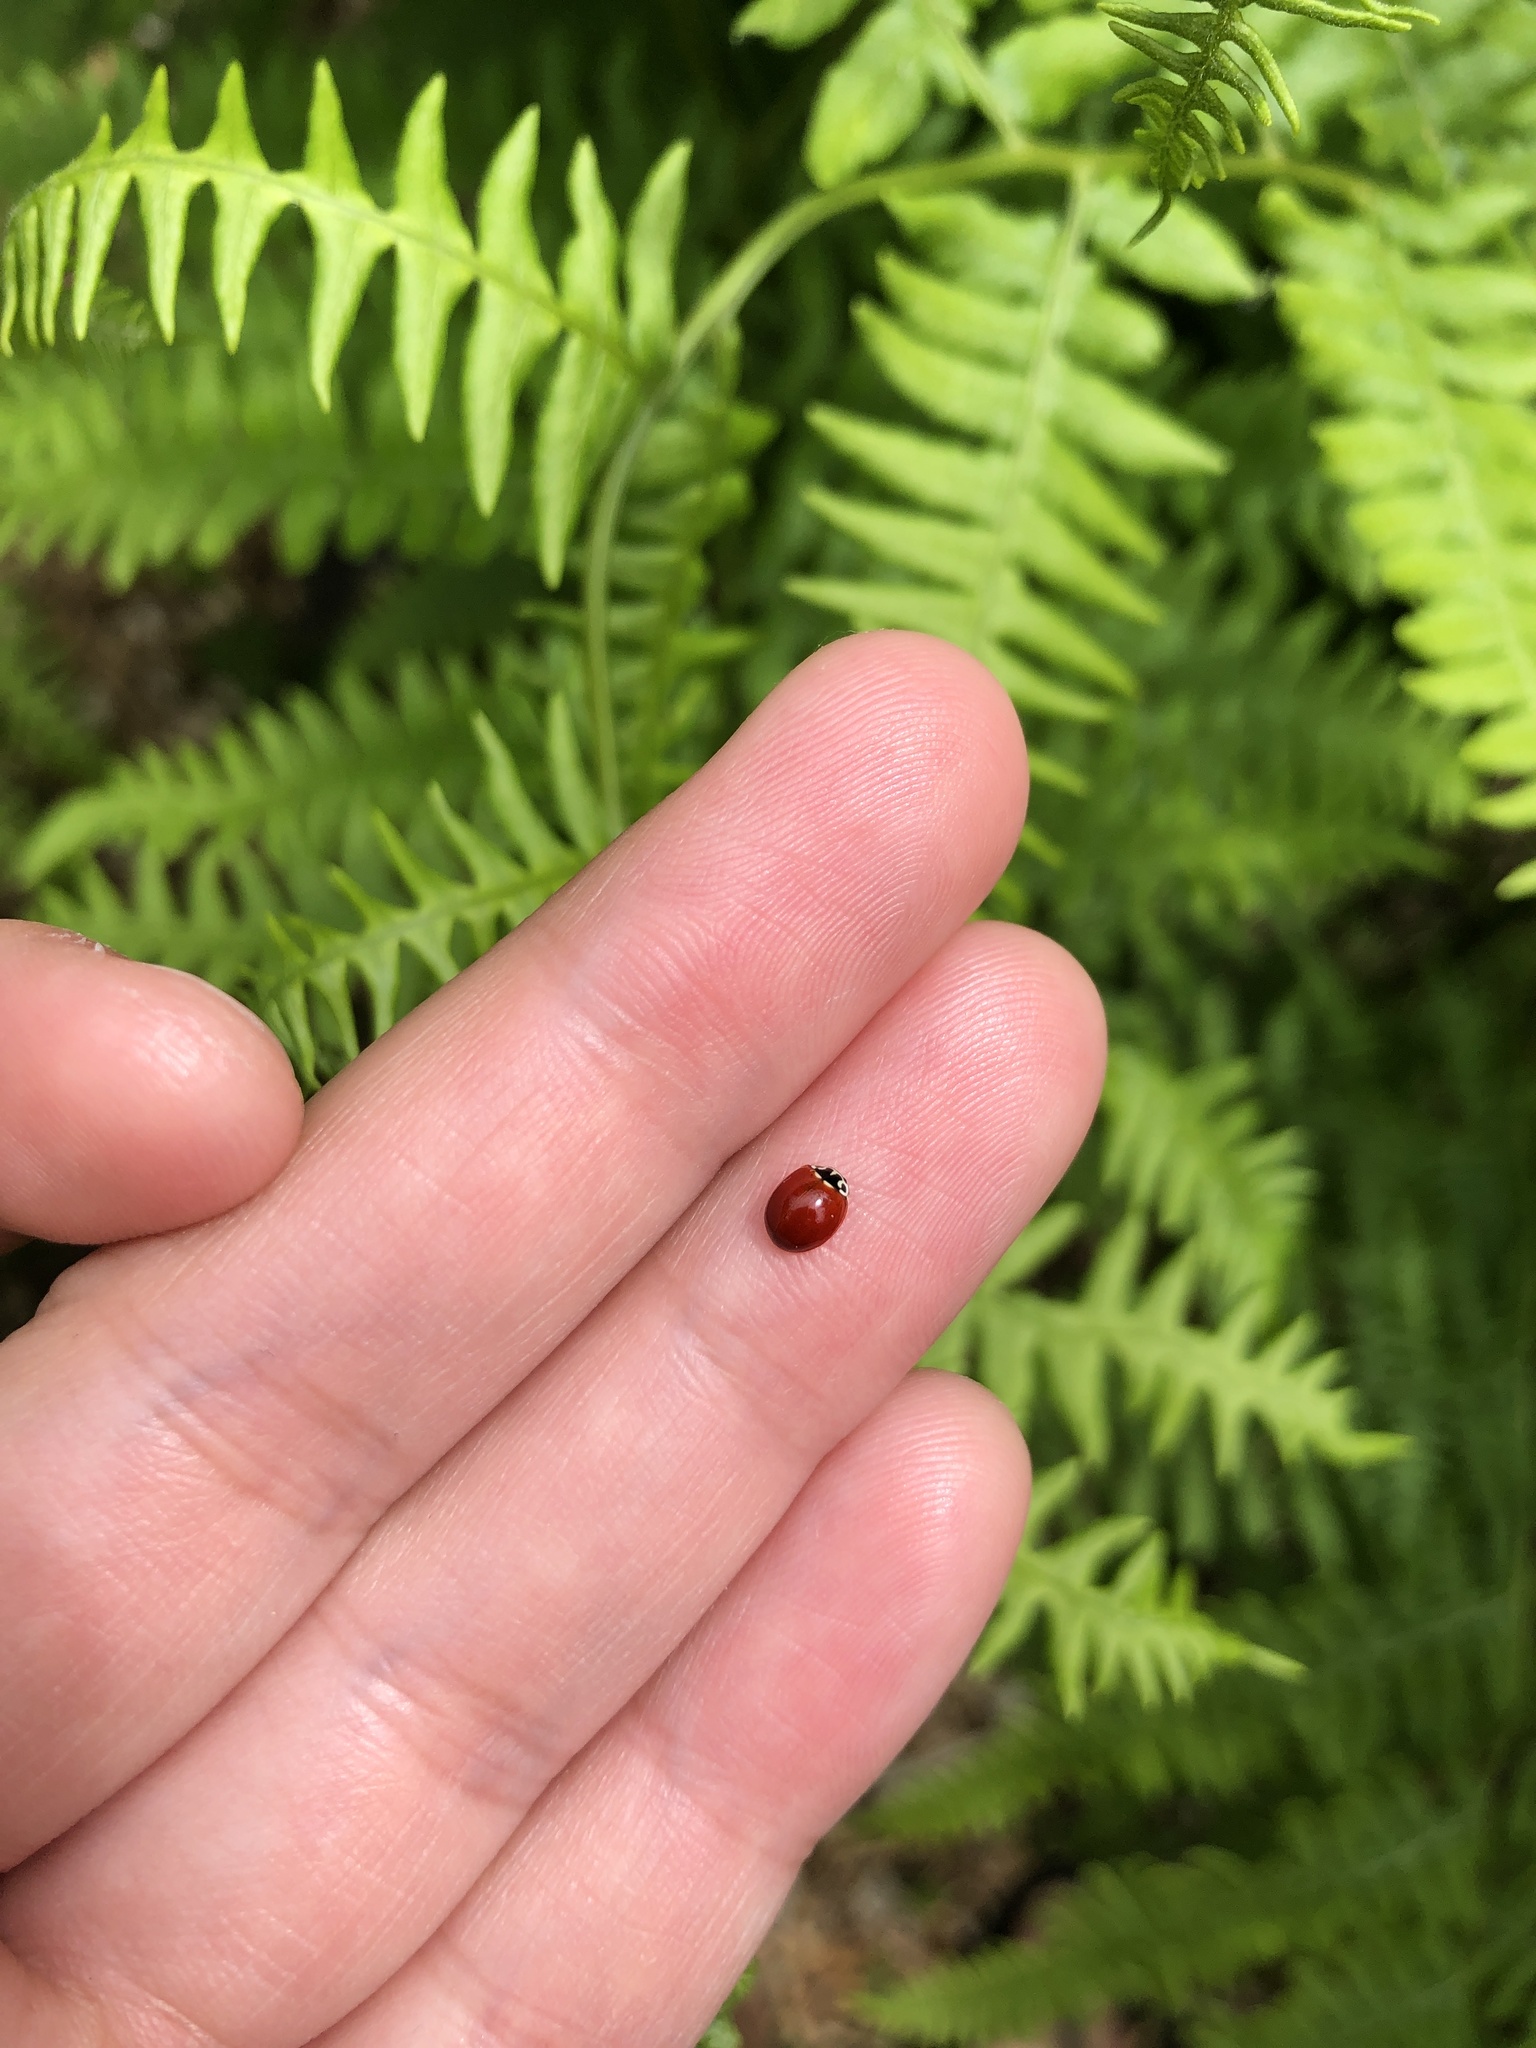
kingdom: Animalia
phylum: Arthropoda
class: Insecta
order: Coleoptera
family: Coccinellidae
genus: Cycloneda
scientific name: Cycloneda polita
